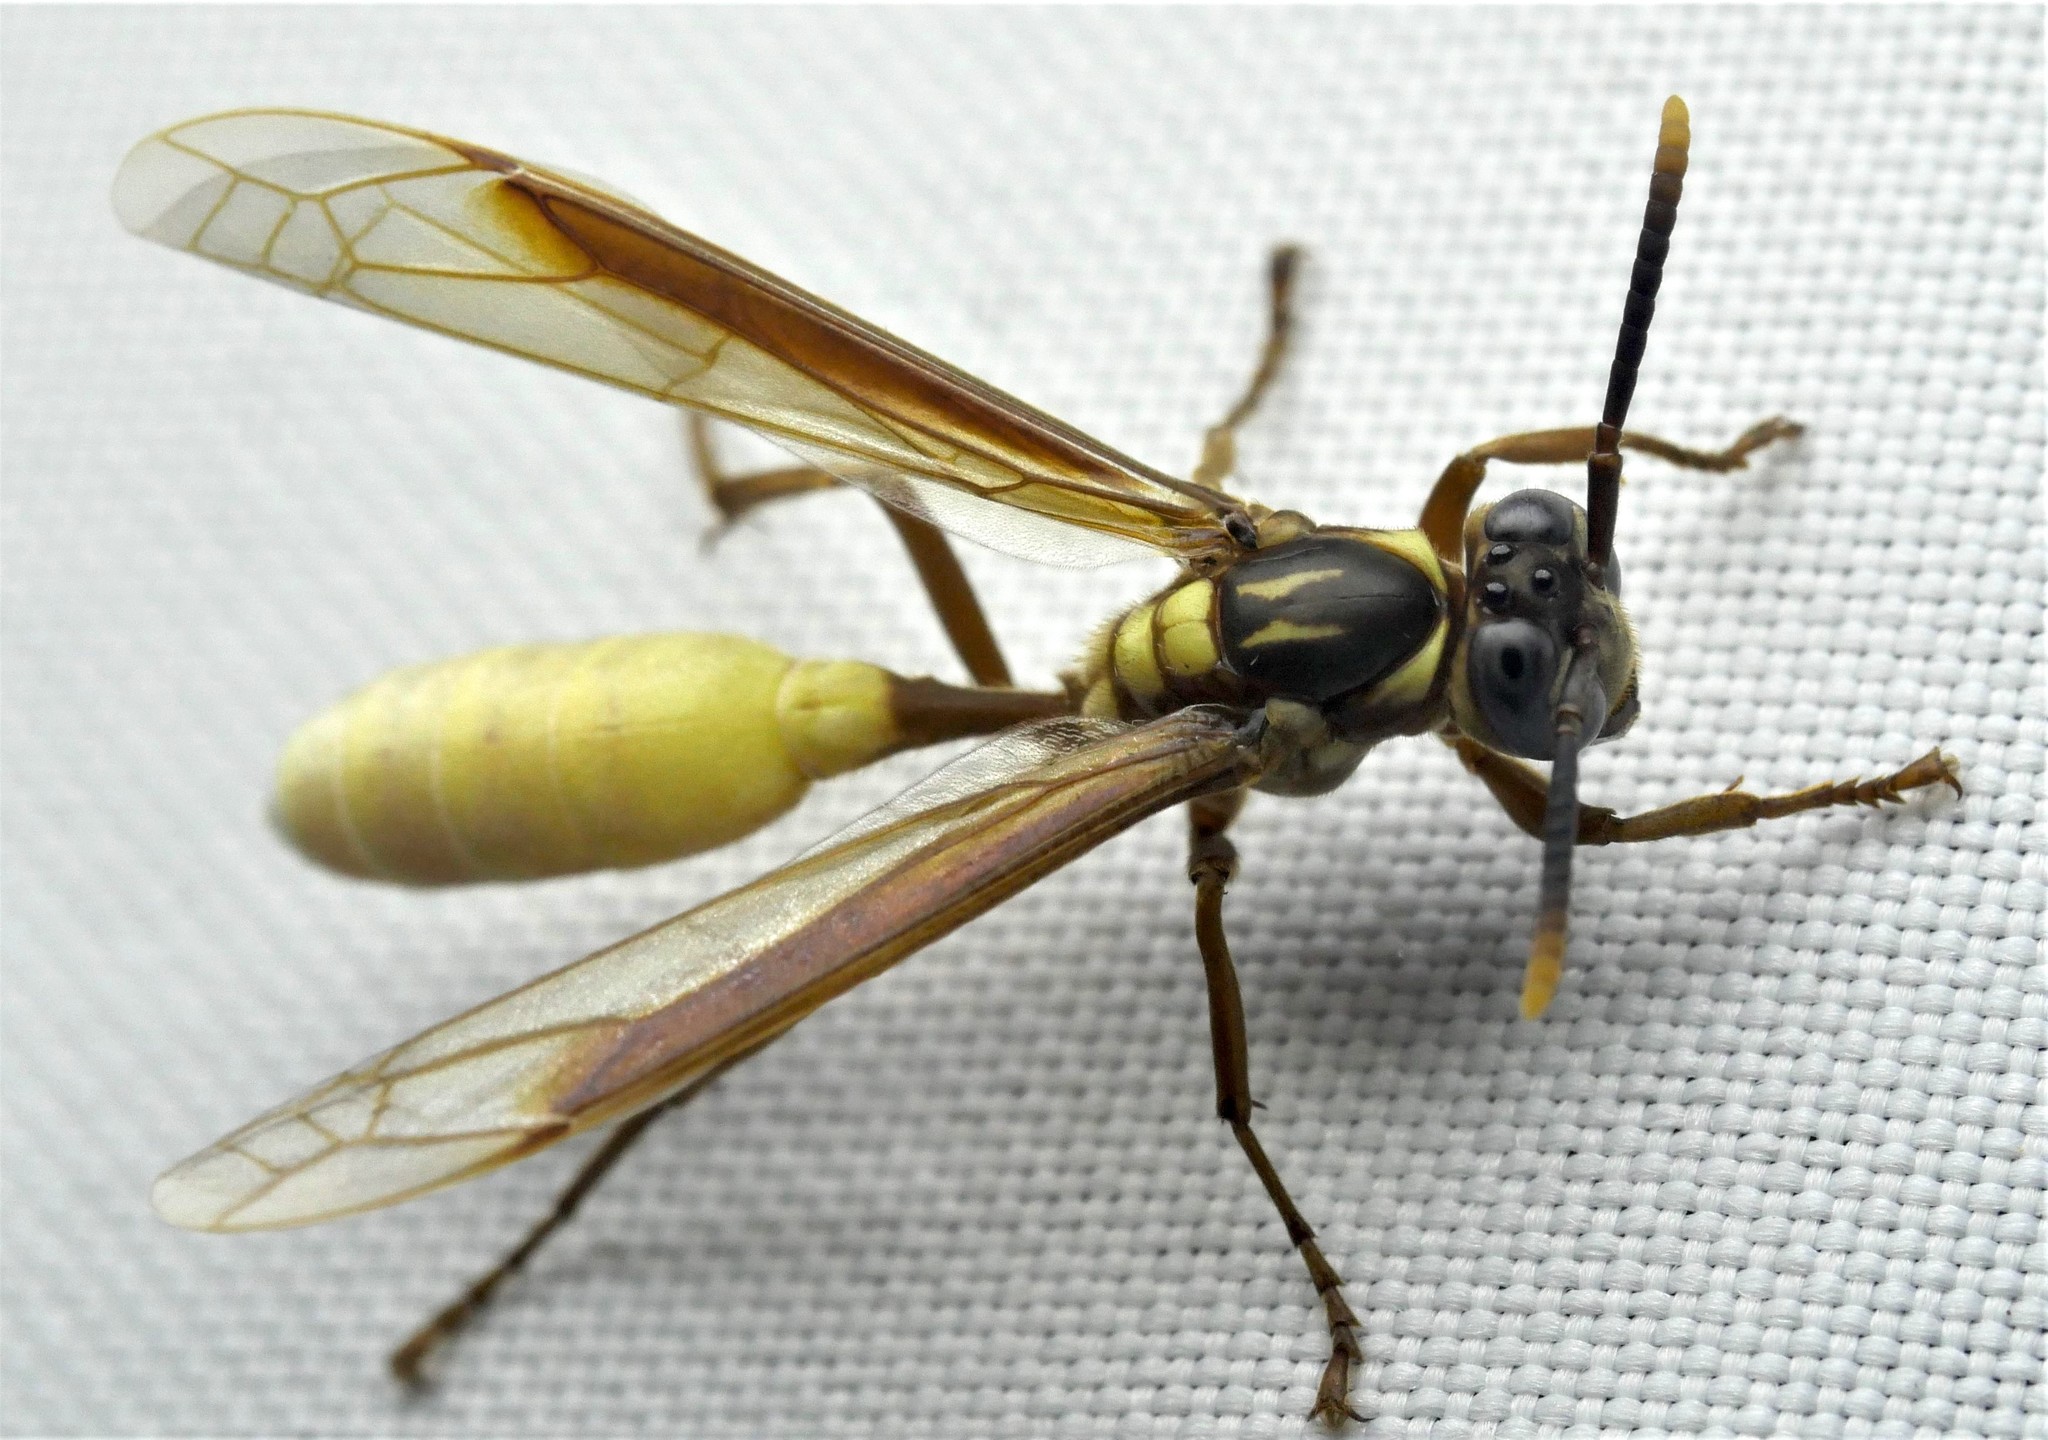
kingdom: Animalia
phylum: Arthropoda
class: Insecta
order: Hymenoptera
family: Vespidae
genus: Apoica
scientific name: Apoica pallens
